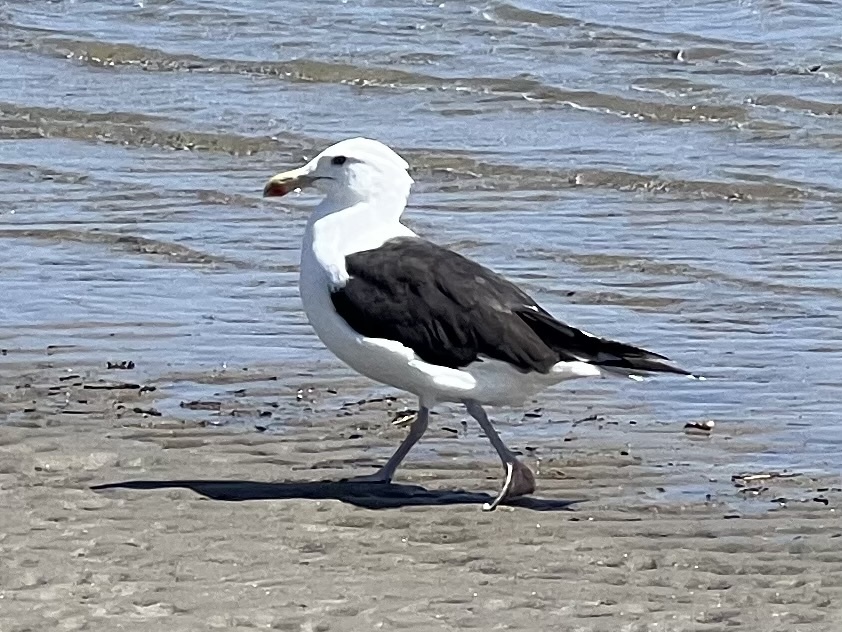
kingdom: Animalia
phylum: Chordata
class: Aves
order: Charadriiformes
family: Laridae
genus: Larus
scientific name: Larus marinus
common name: Great black-backed gull
